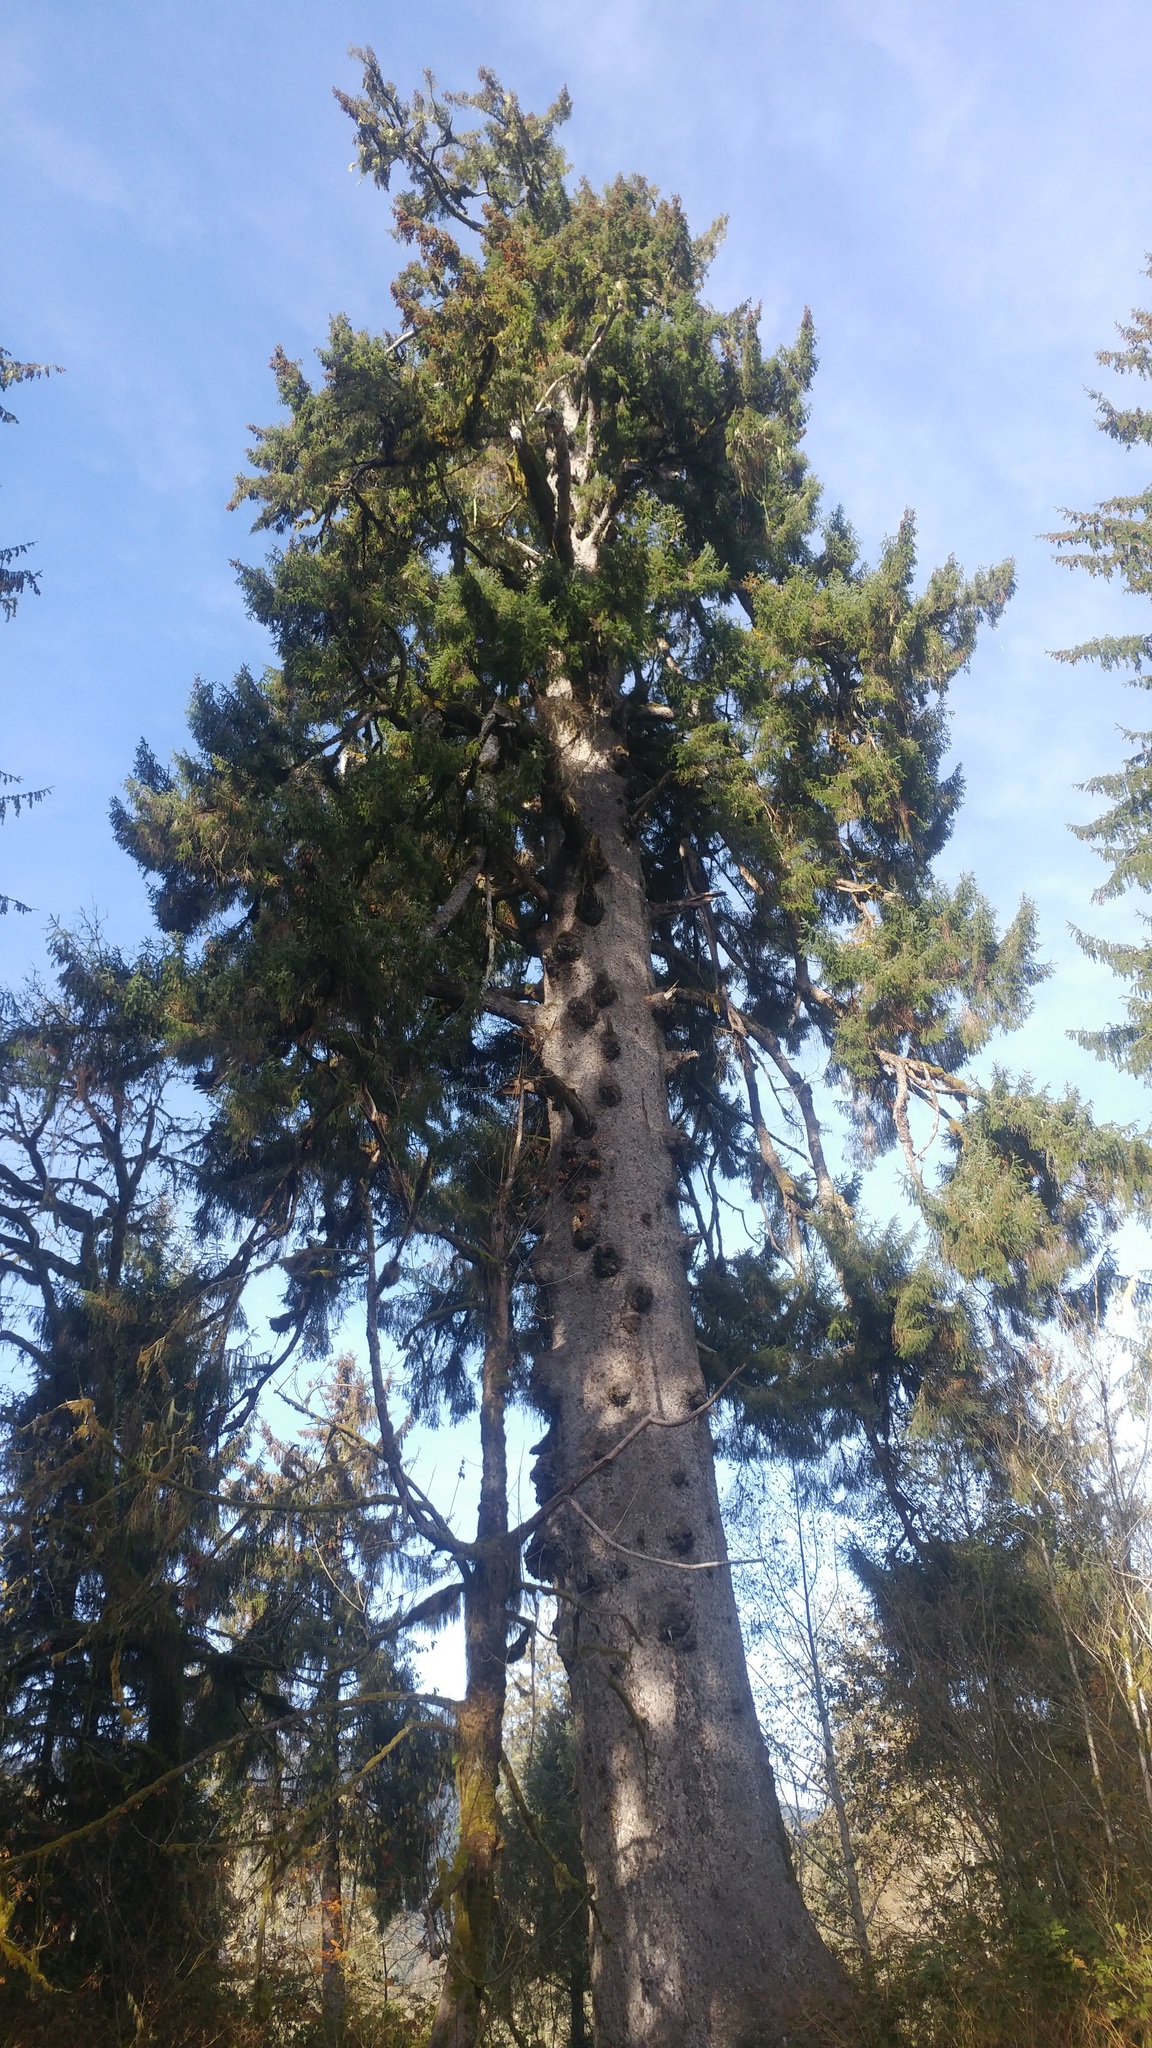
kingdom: Plantae
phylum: Tracheophyta
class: Pinopsida
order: Pinales
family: Pinaceae
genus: Picea
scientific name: Picea sitchensis
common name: Sitka spruce
